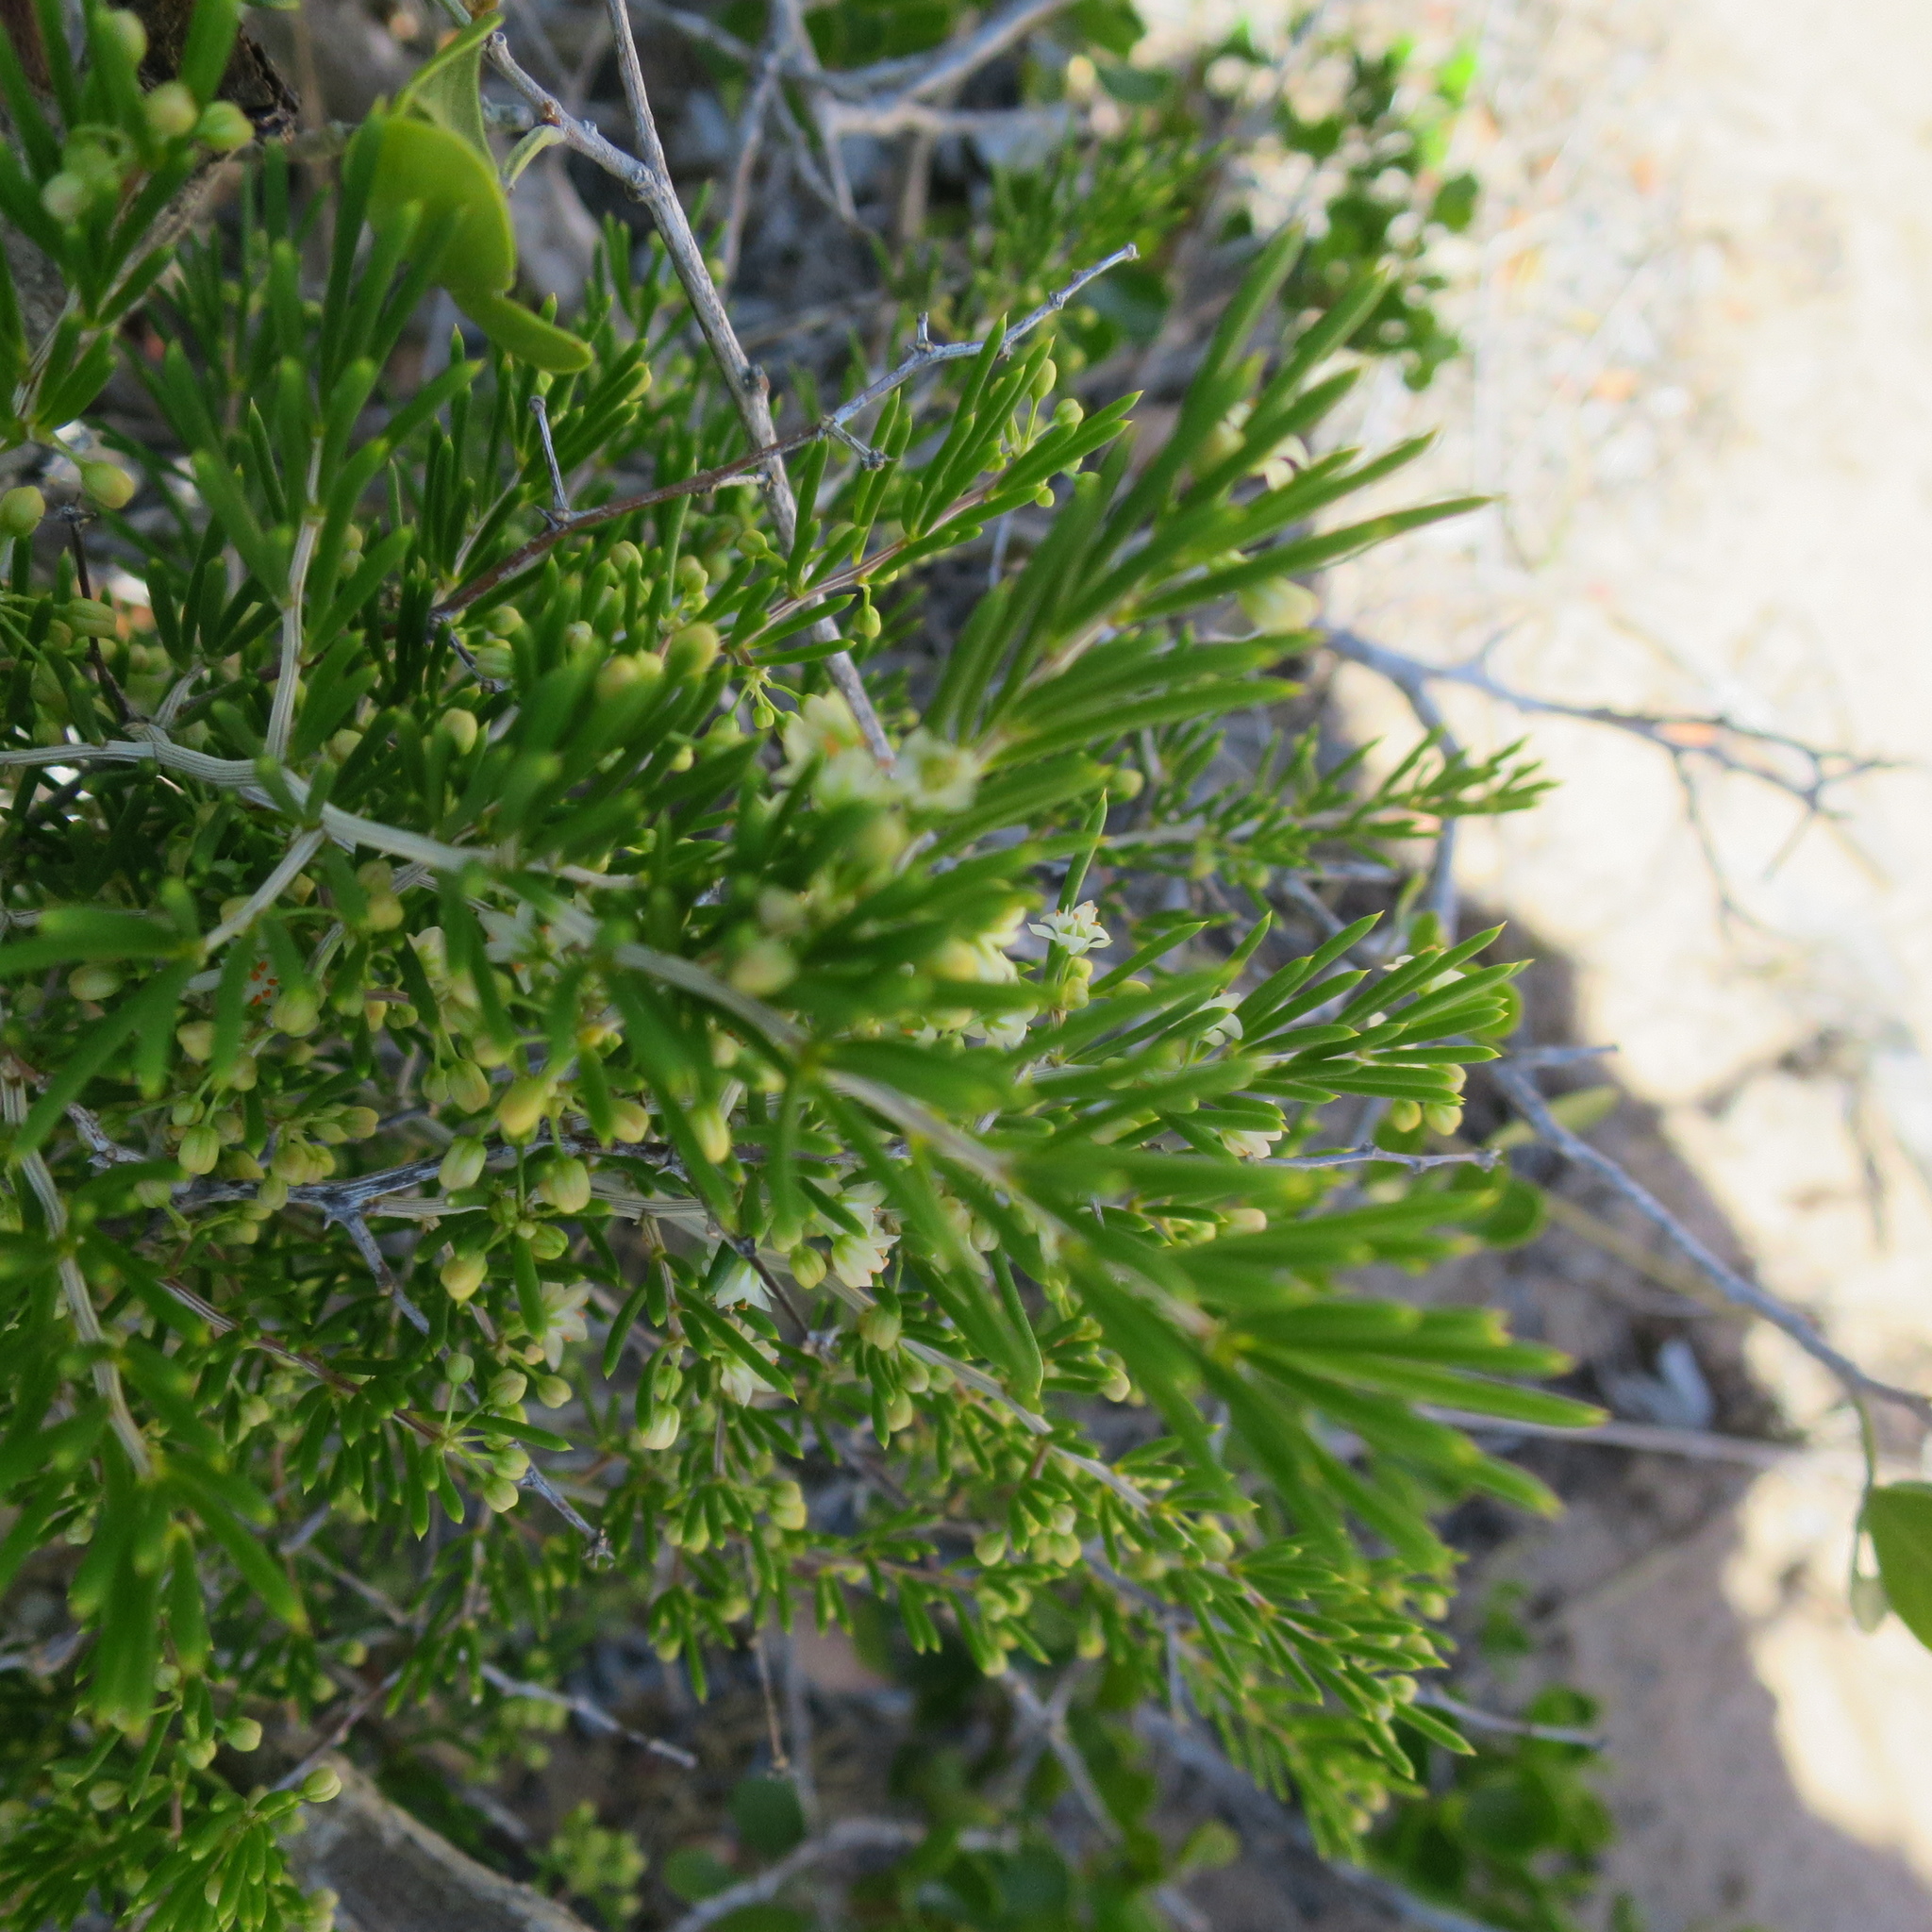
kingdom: Plantae
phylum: Tracheophyta
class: Liliopsida
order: Asparagales
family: Asparagaceae
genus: Asparagus
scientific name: Asparagus lignosus
